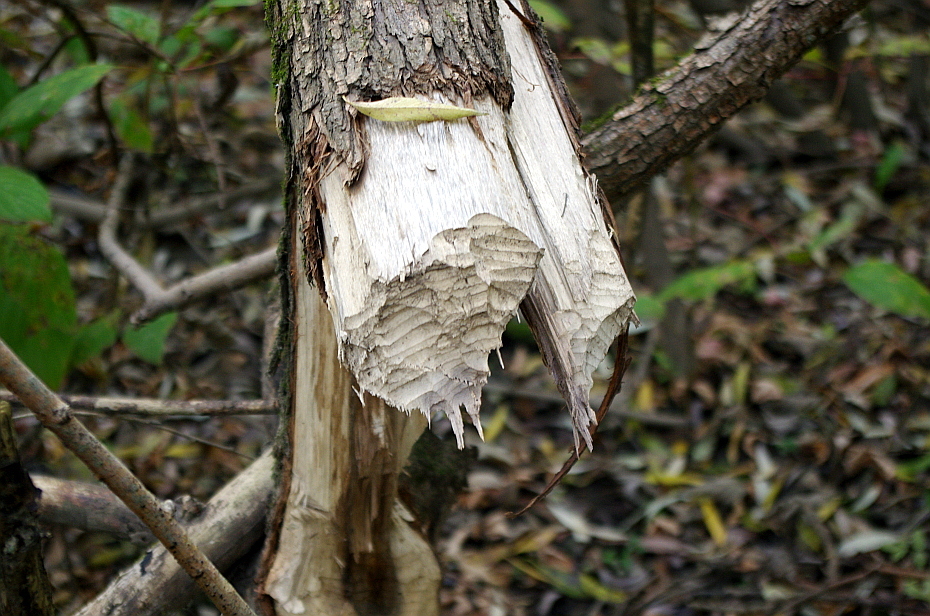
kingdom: Animalia
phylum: Chordata
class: Mammalia
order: Rodentia
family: Castoridae
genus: Castor
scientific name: Castor fiber
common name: Eurasian beaver
